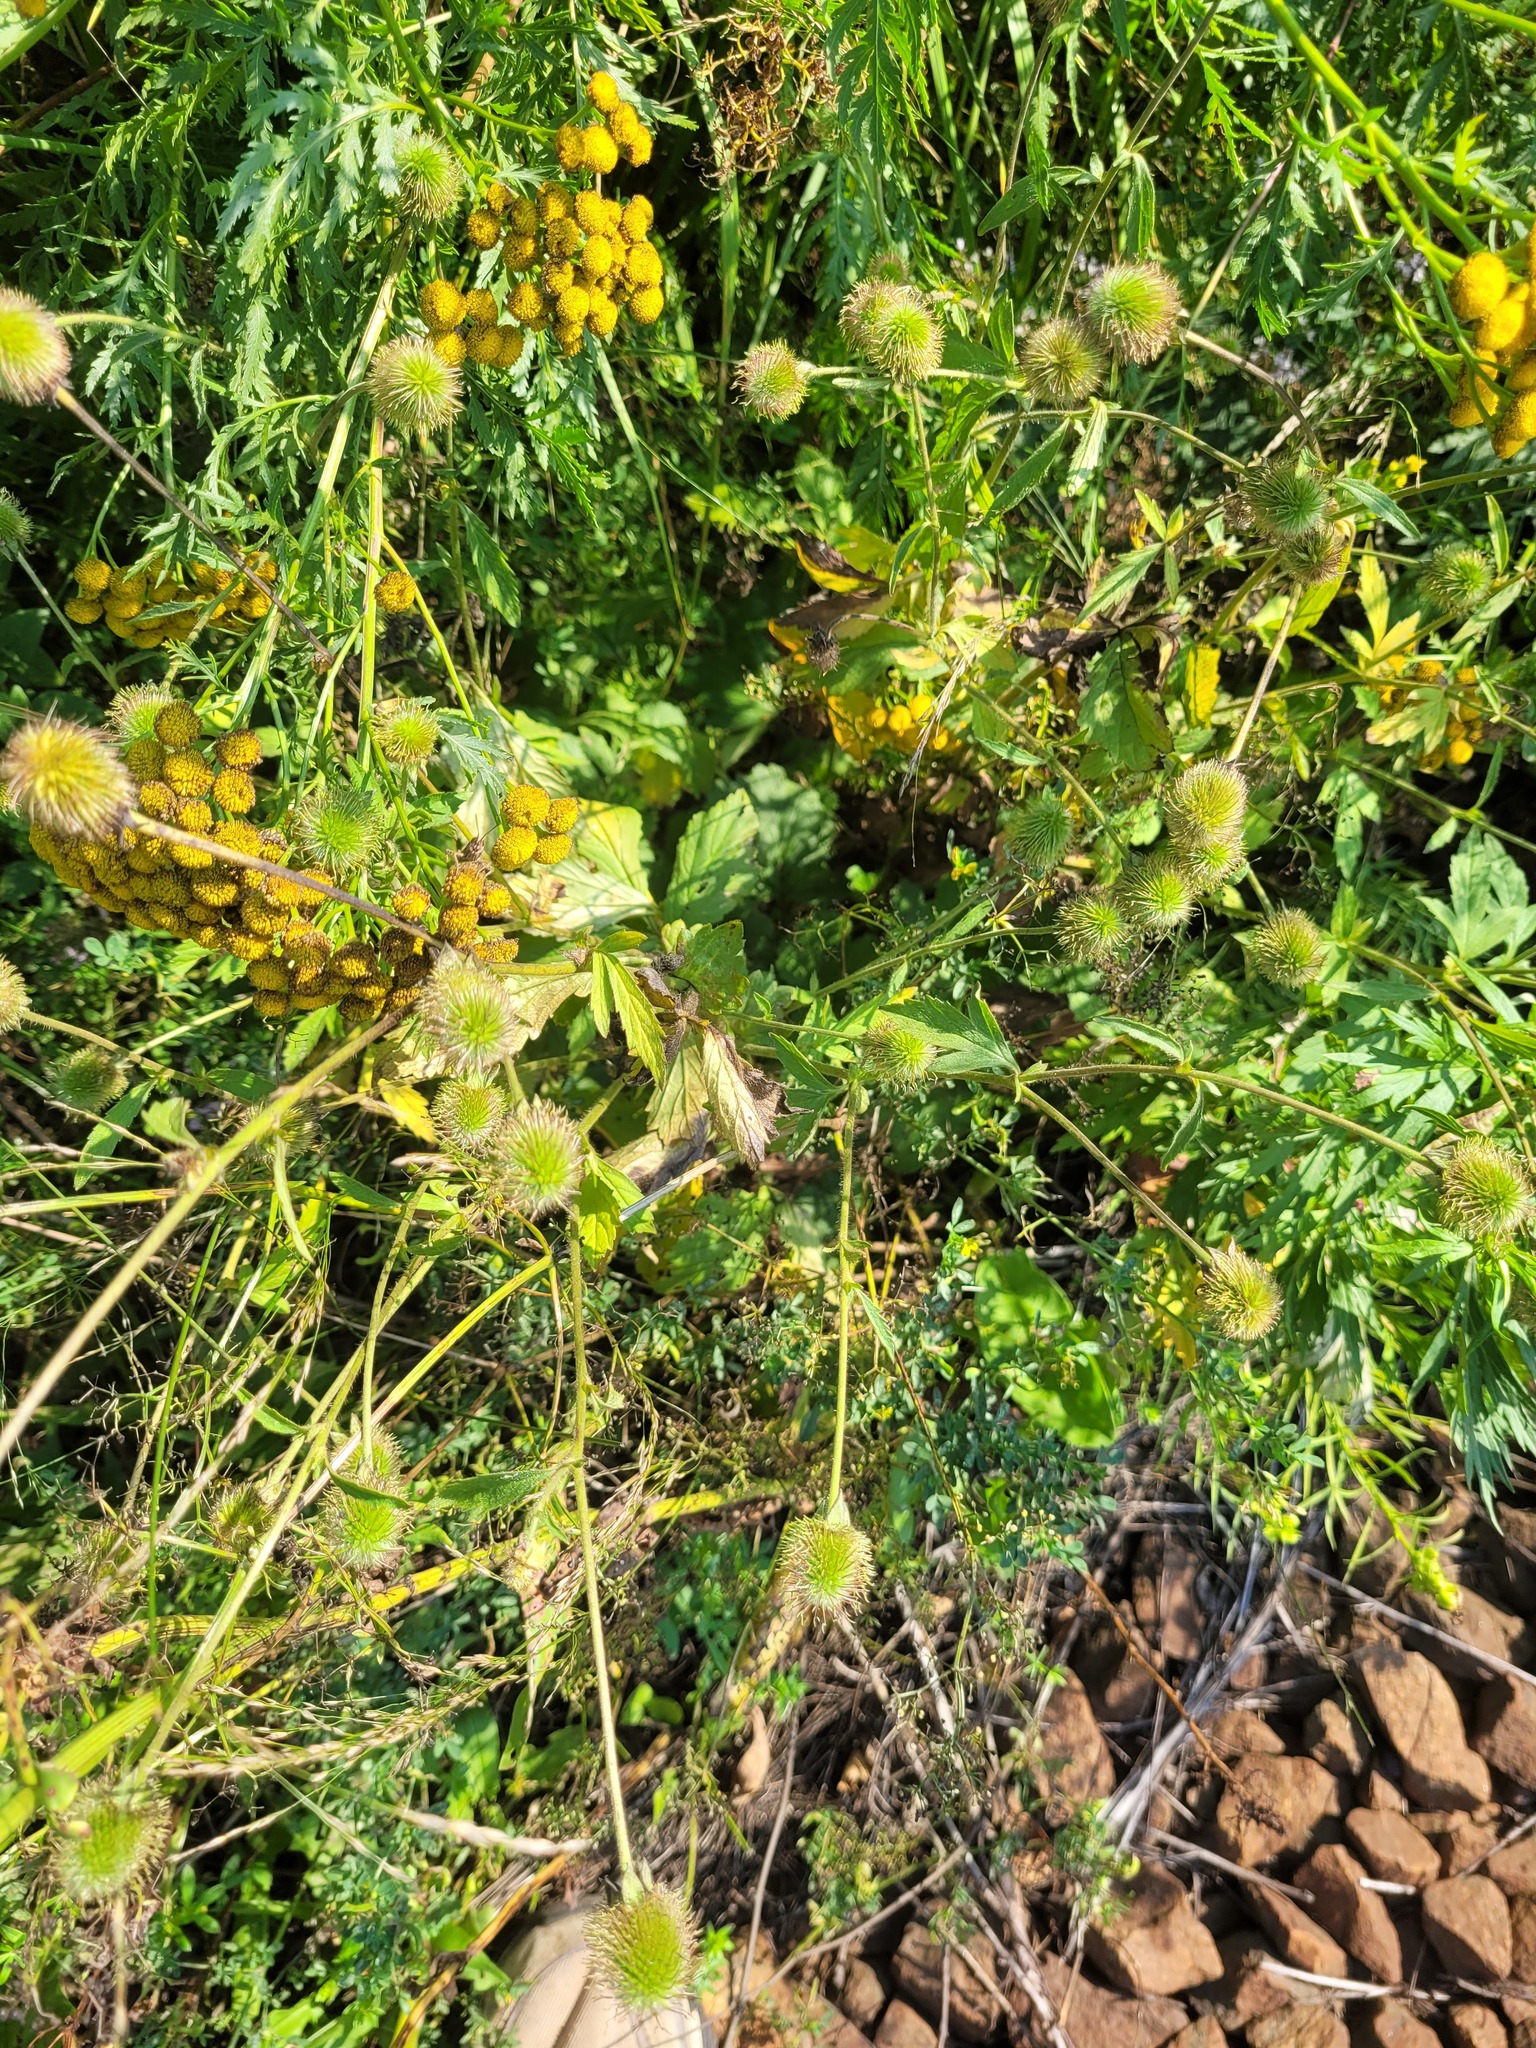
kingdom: Plantae
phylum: Tracheophyta
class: Magnoliopsida
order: Rosales
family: Rosaceae
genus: Geum
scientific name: Geum aleppicum
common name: Yellow avens
